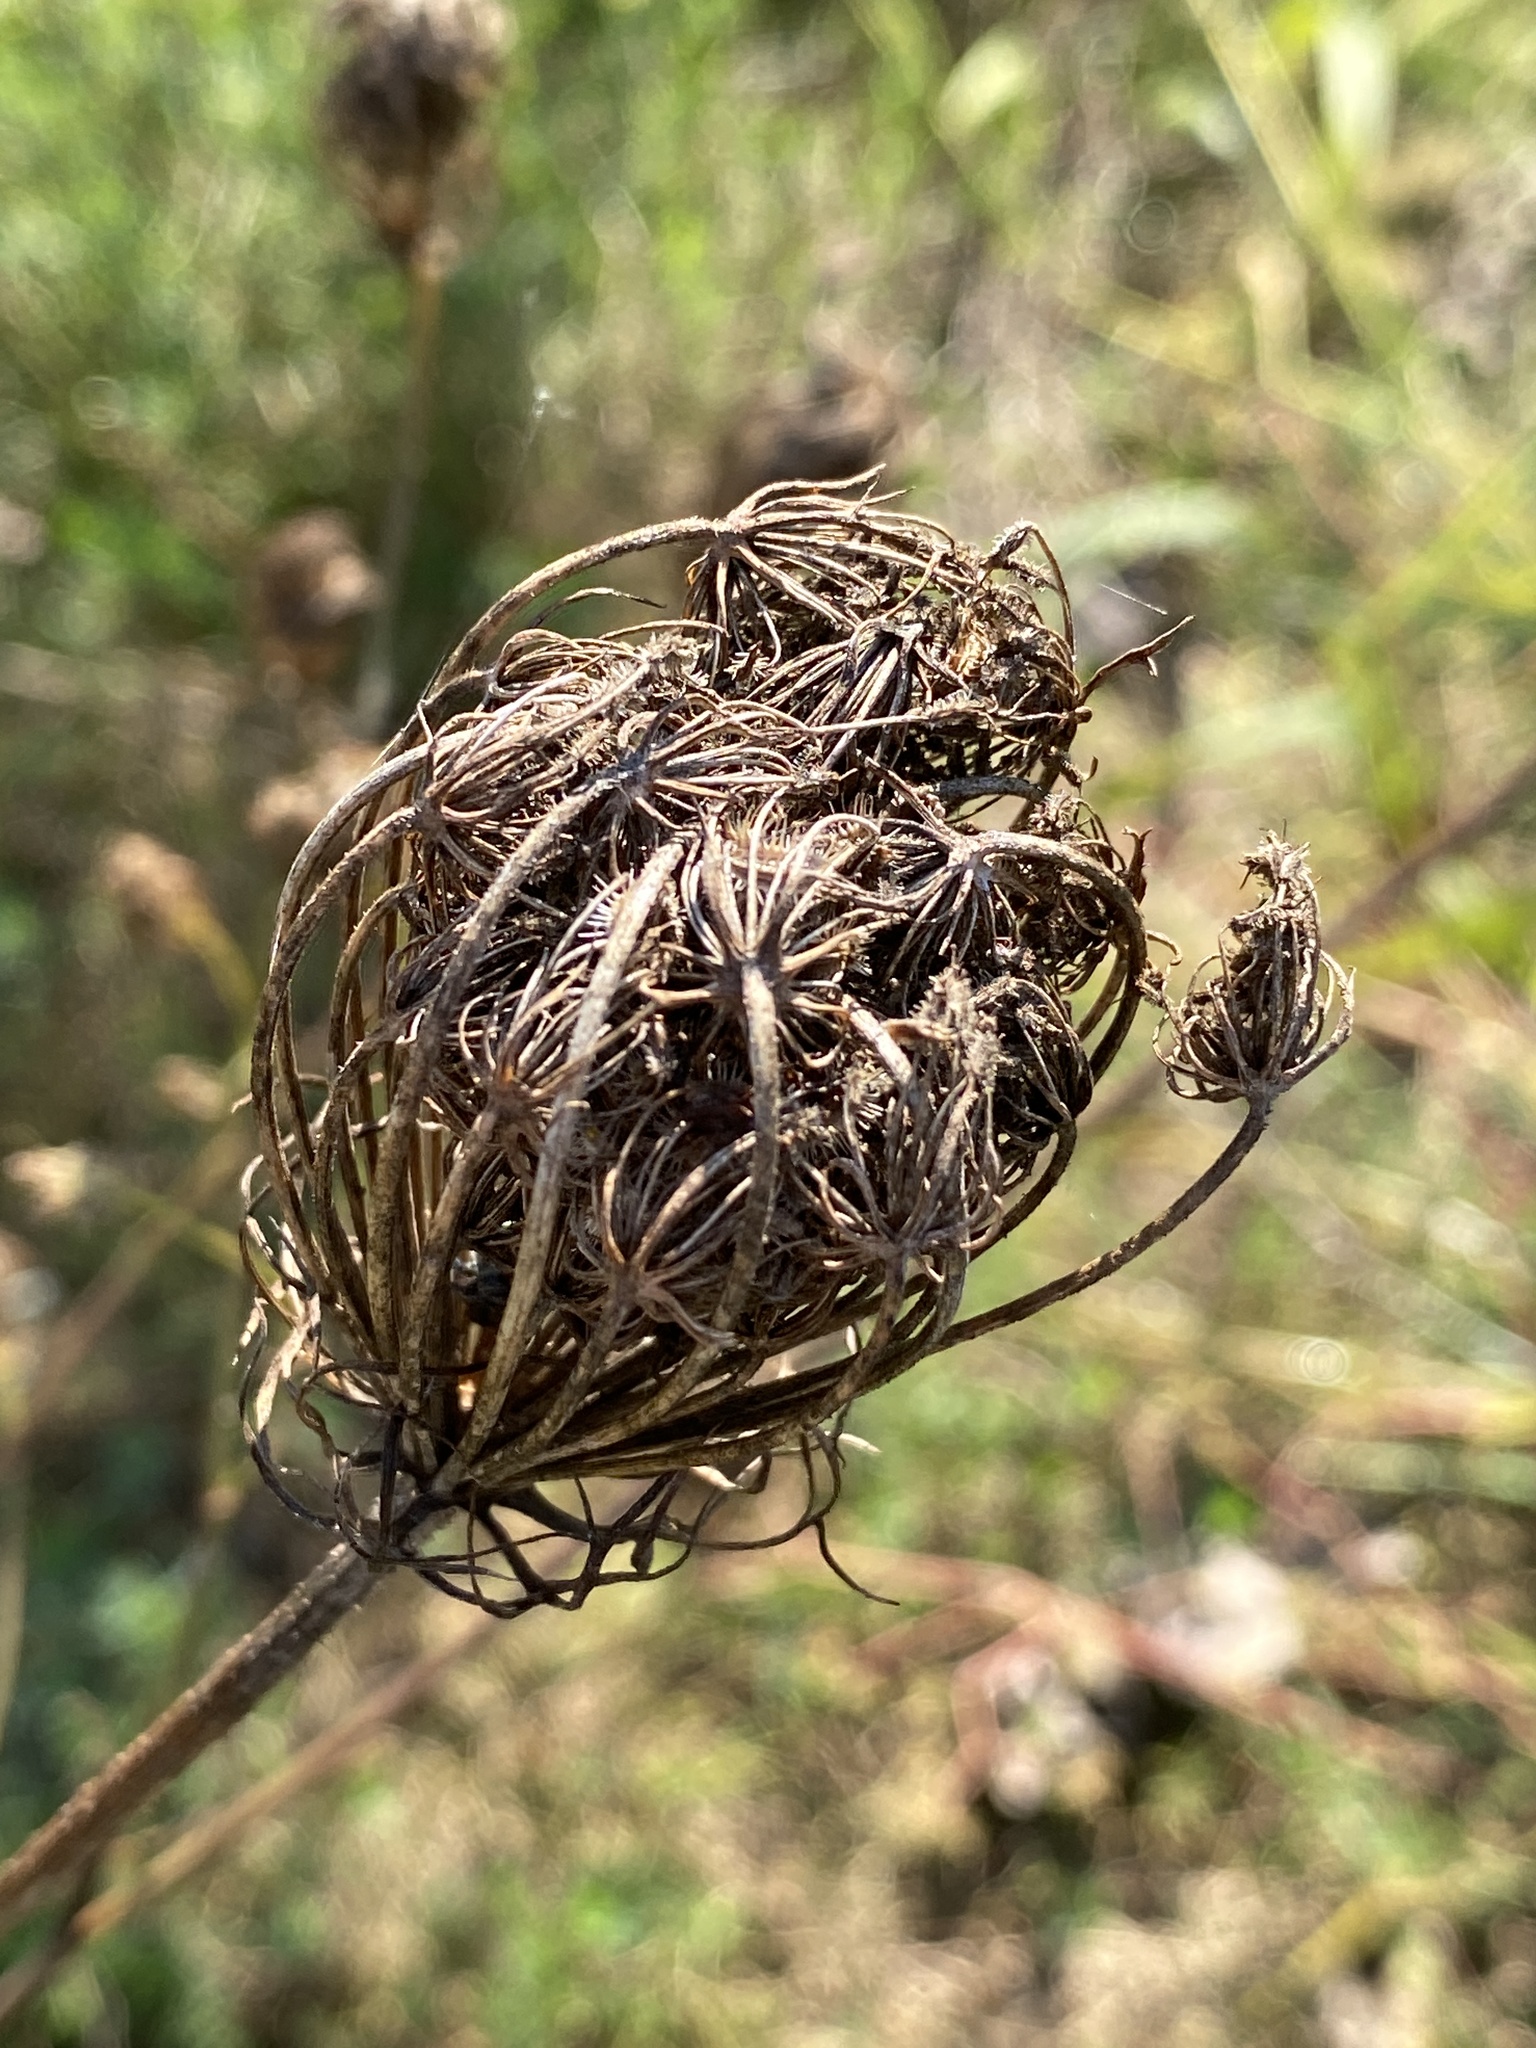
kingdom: Plantae
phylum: Tracheophyta
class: Magnoliopsida
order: Apiales
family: Apiaceae
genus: Daucus
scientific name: Daucus carota
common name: Wild carrot
